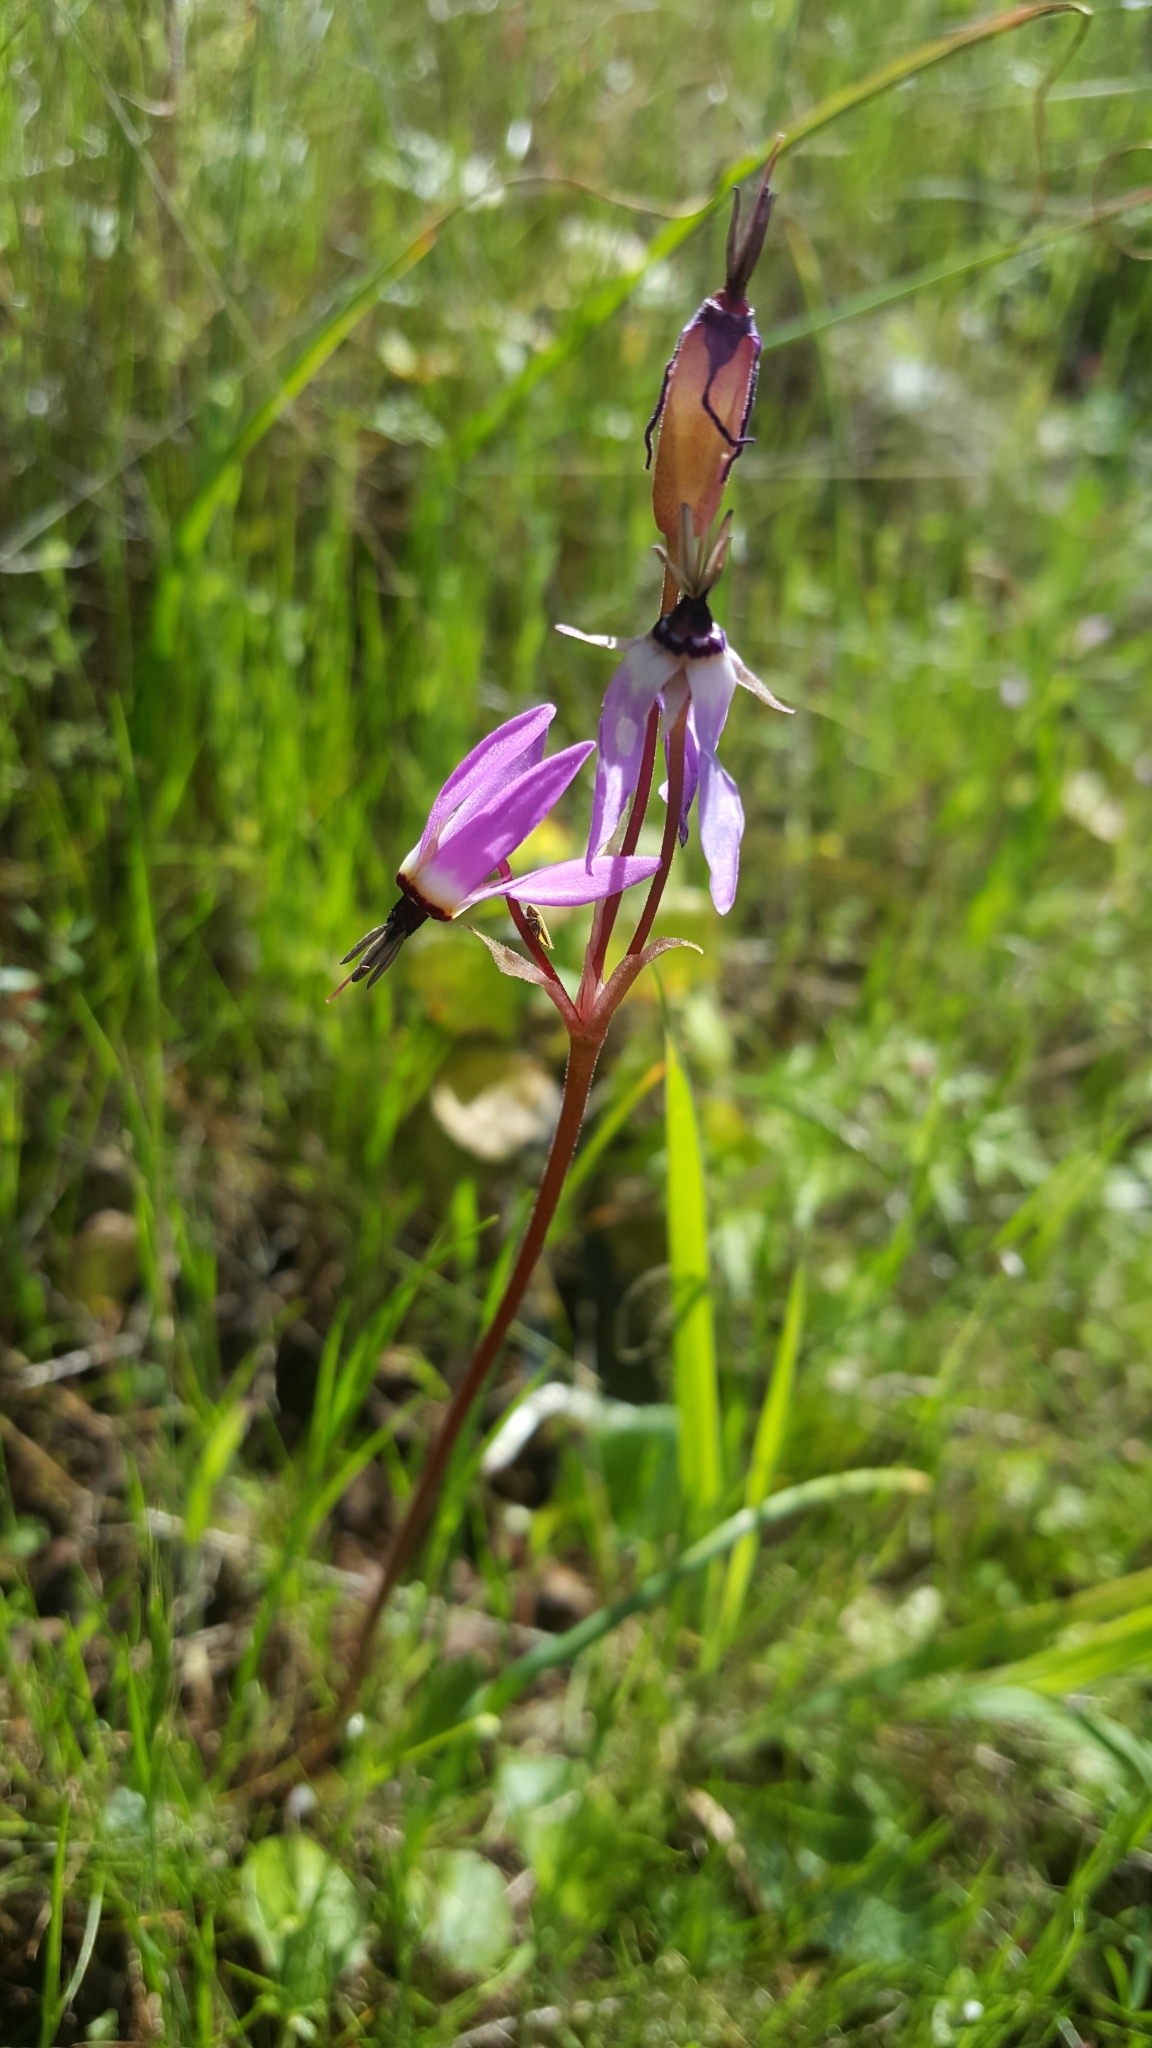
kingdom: Plantae
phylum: Tracheophyta
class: Magnoliopsida
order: Ericales
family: Primulaceae
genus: Dodecatheon
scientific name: Dodecatheon hendersonii
